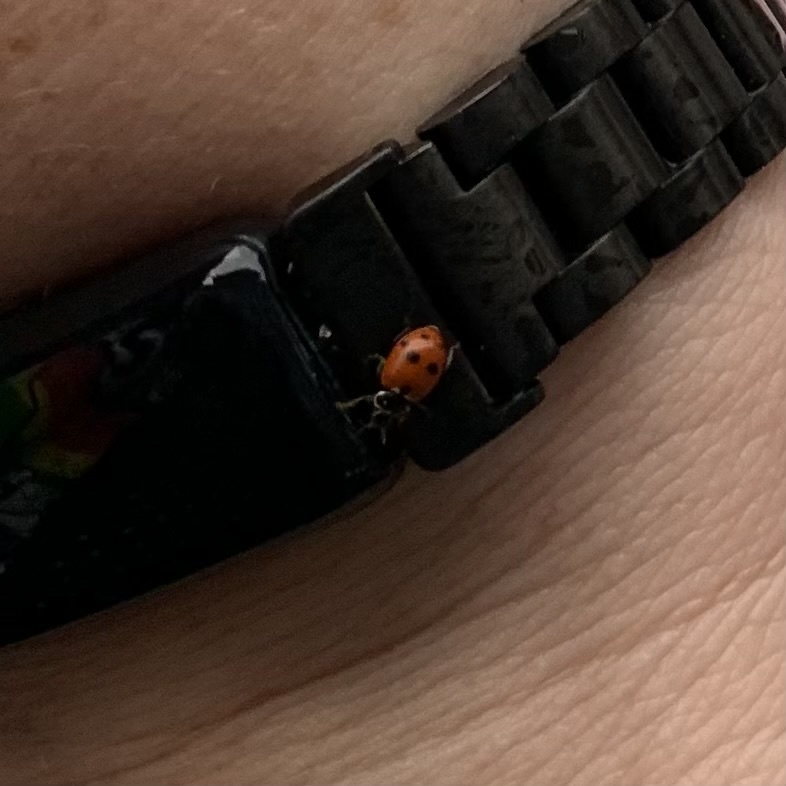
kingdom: Animalia
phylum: Arthropoda
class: Insecta
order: Coleoptera
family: Coccinellidae
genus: Hippodamia
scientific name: Hippodamia variegata
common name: Ladybird beetle
